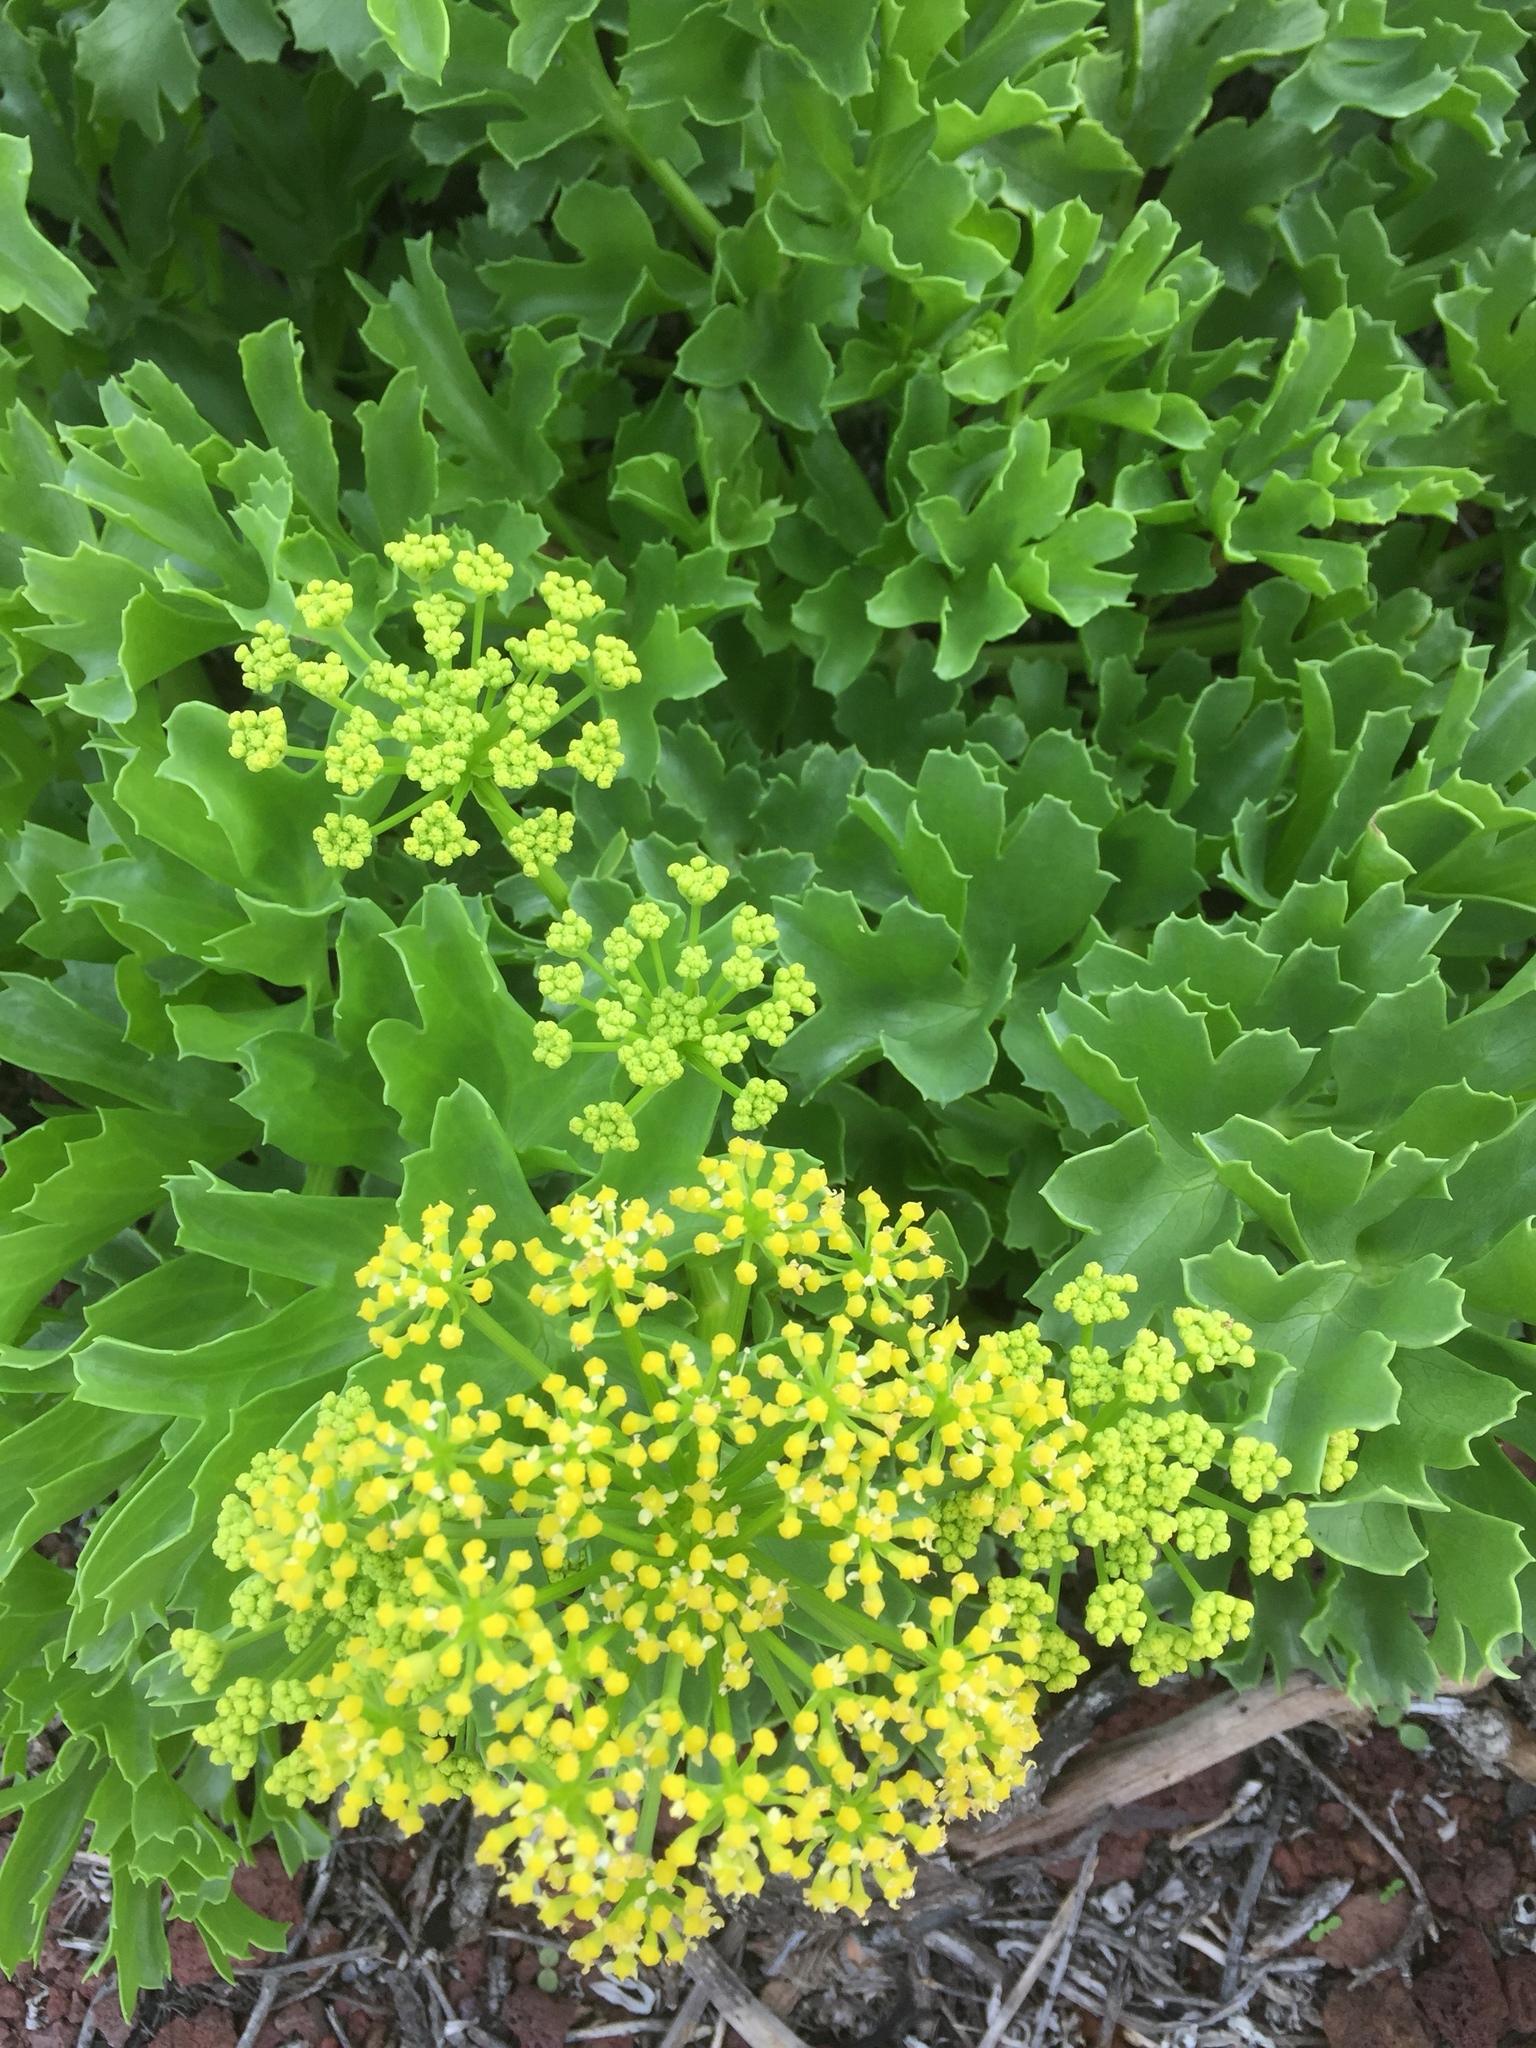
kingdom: Plantae
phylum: Tracheophyta
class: Magnoliopsida
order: Apiales
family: Apiaceae
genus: Astydamia
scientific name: Astydamia latifolia
